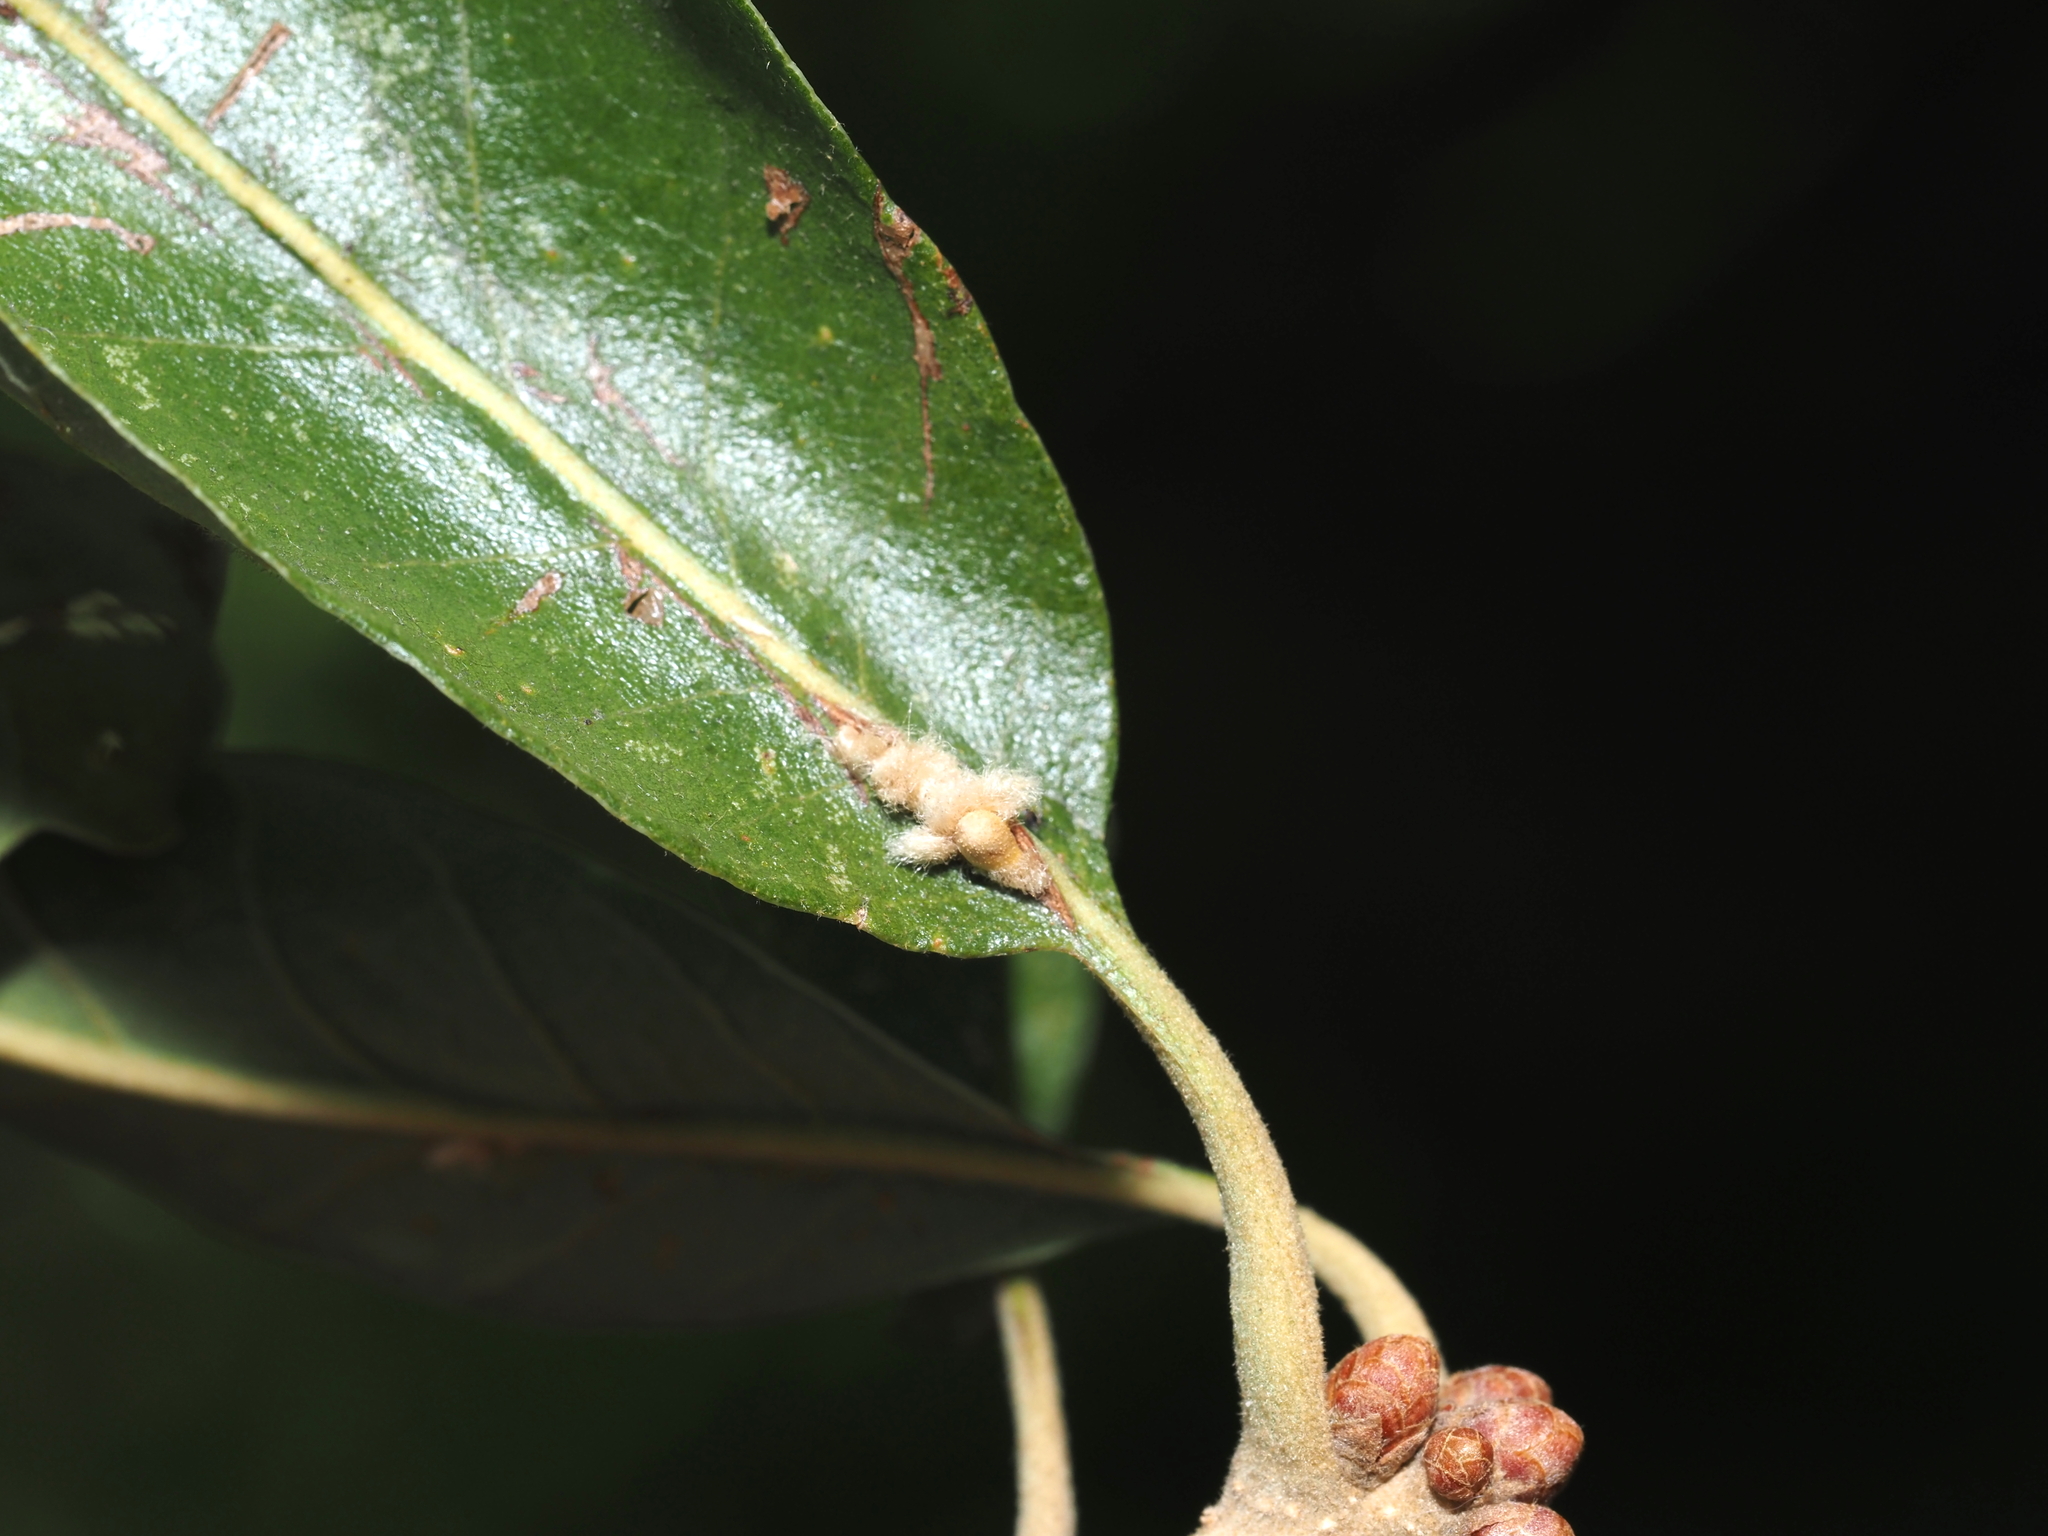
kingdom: Animalia
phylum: Arthropoda
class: Insecta
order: Hymenoptera
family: Cynipidae
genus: Andricus
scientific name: Andricus Druon pattoni
